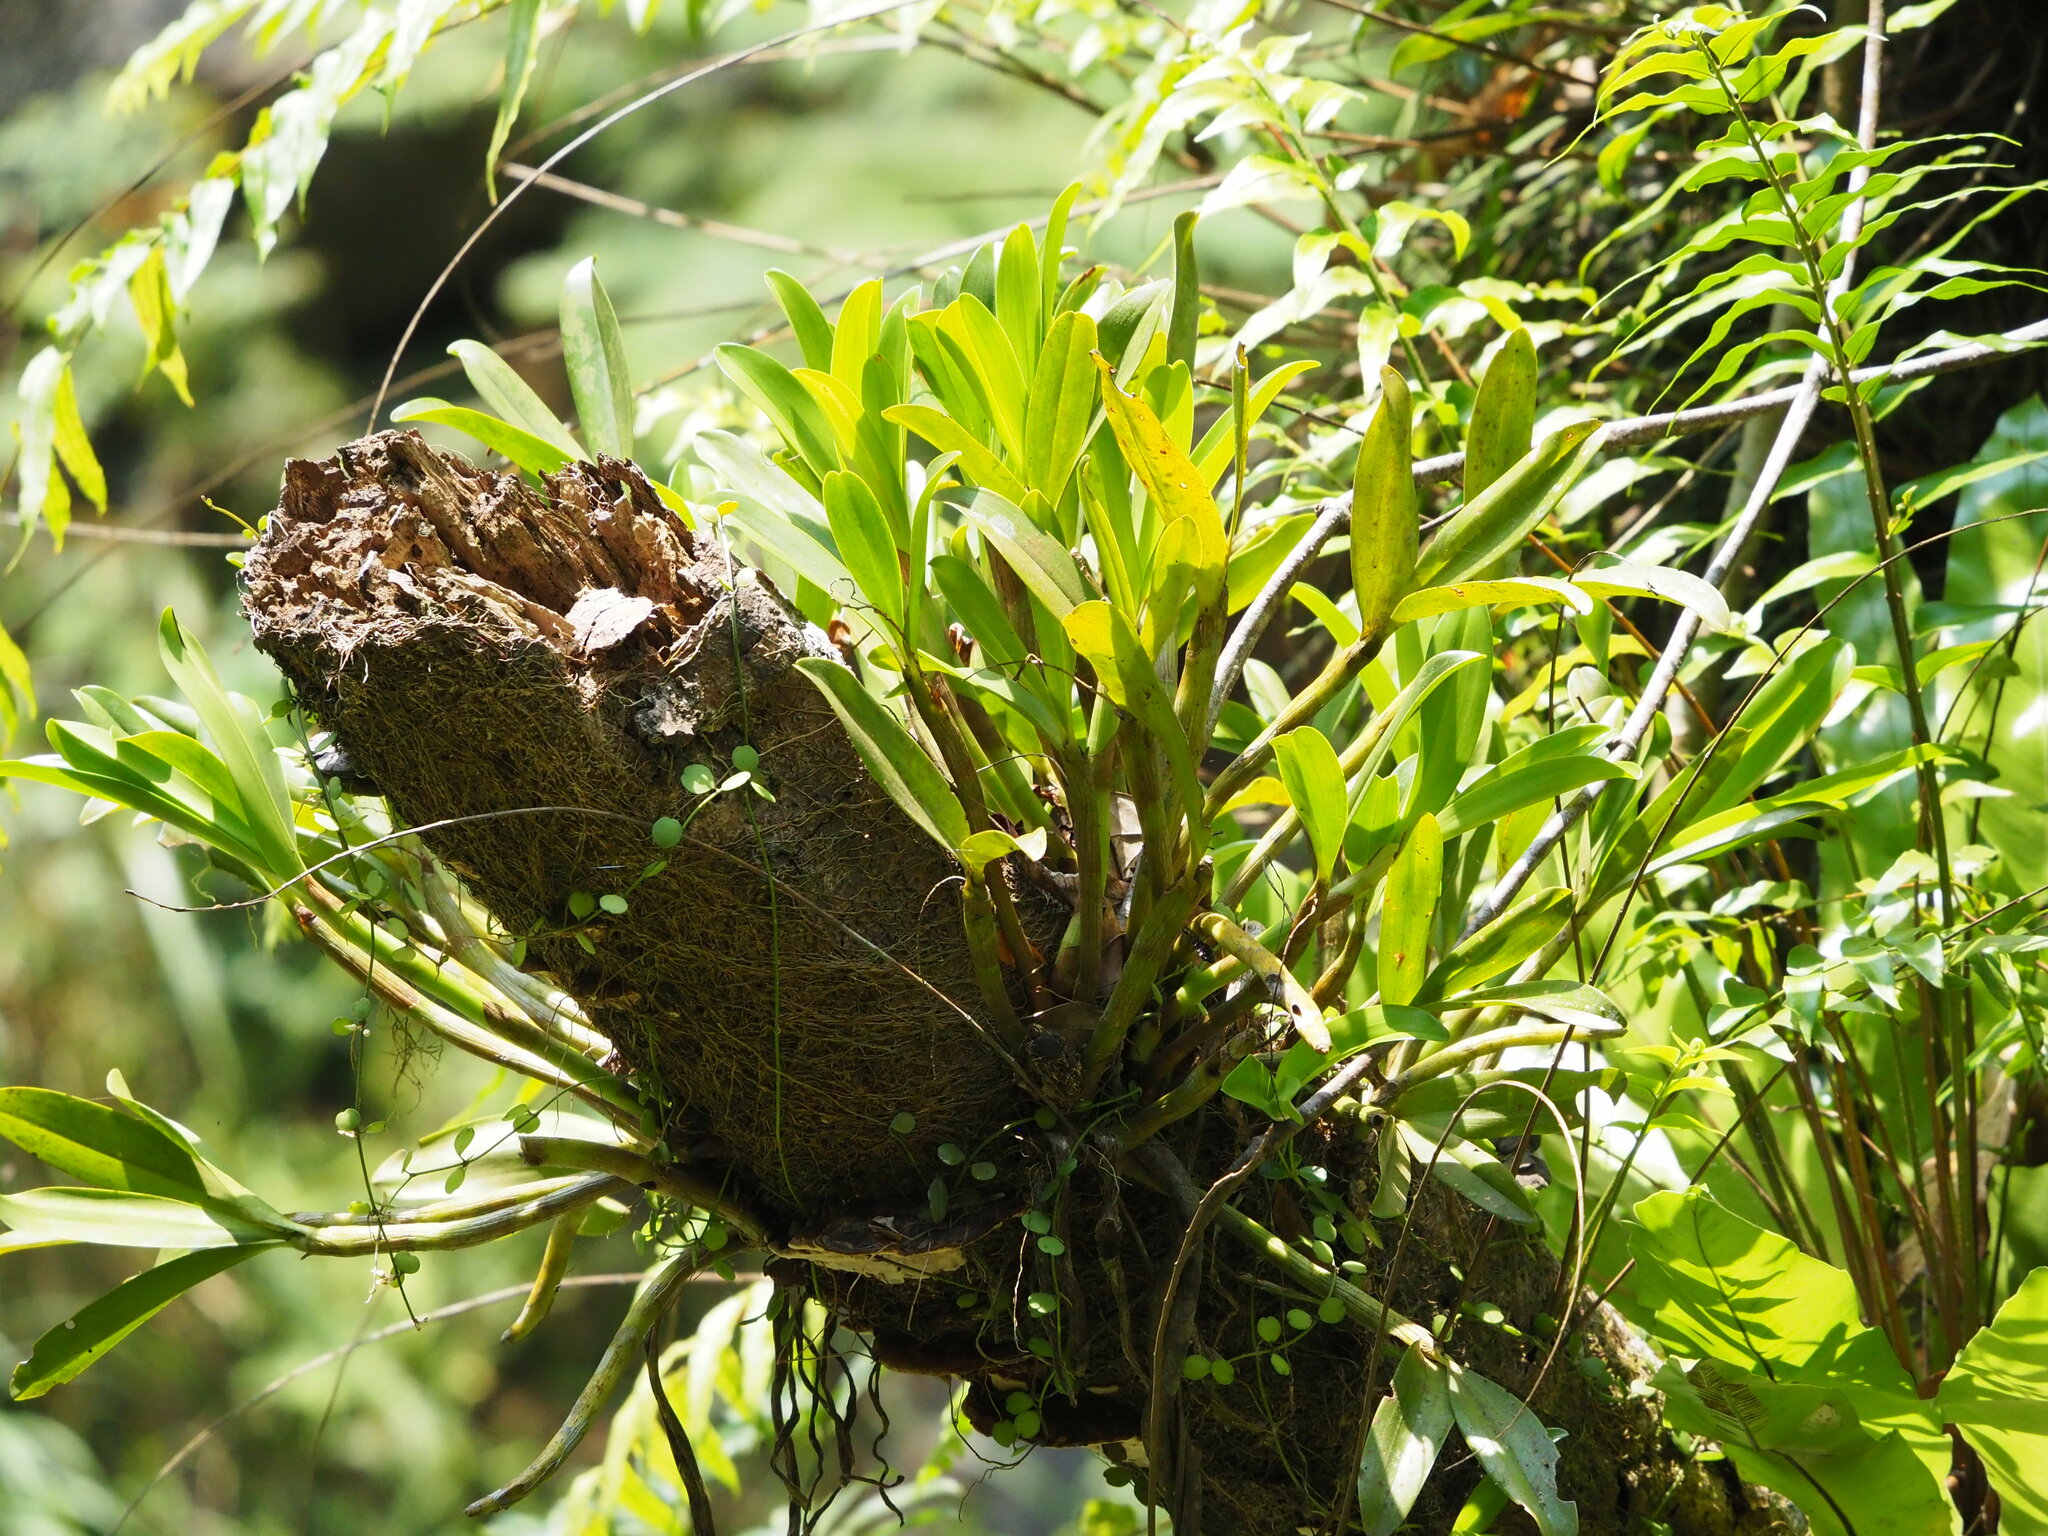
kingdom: Plantae
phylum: Tracheophyta
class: Liliopsida
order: Asparagales
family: Orchidaceae
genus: Pinalia
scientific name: Pinalia ovata
